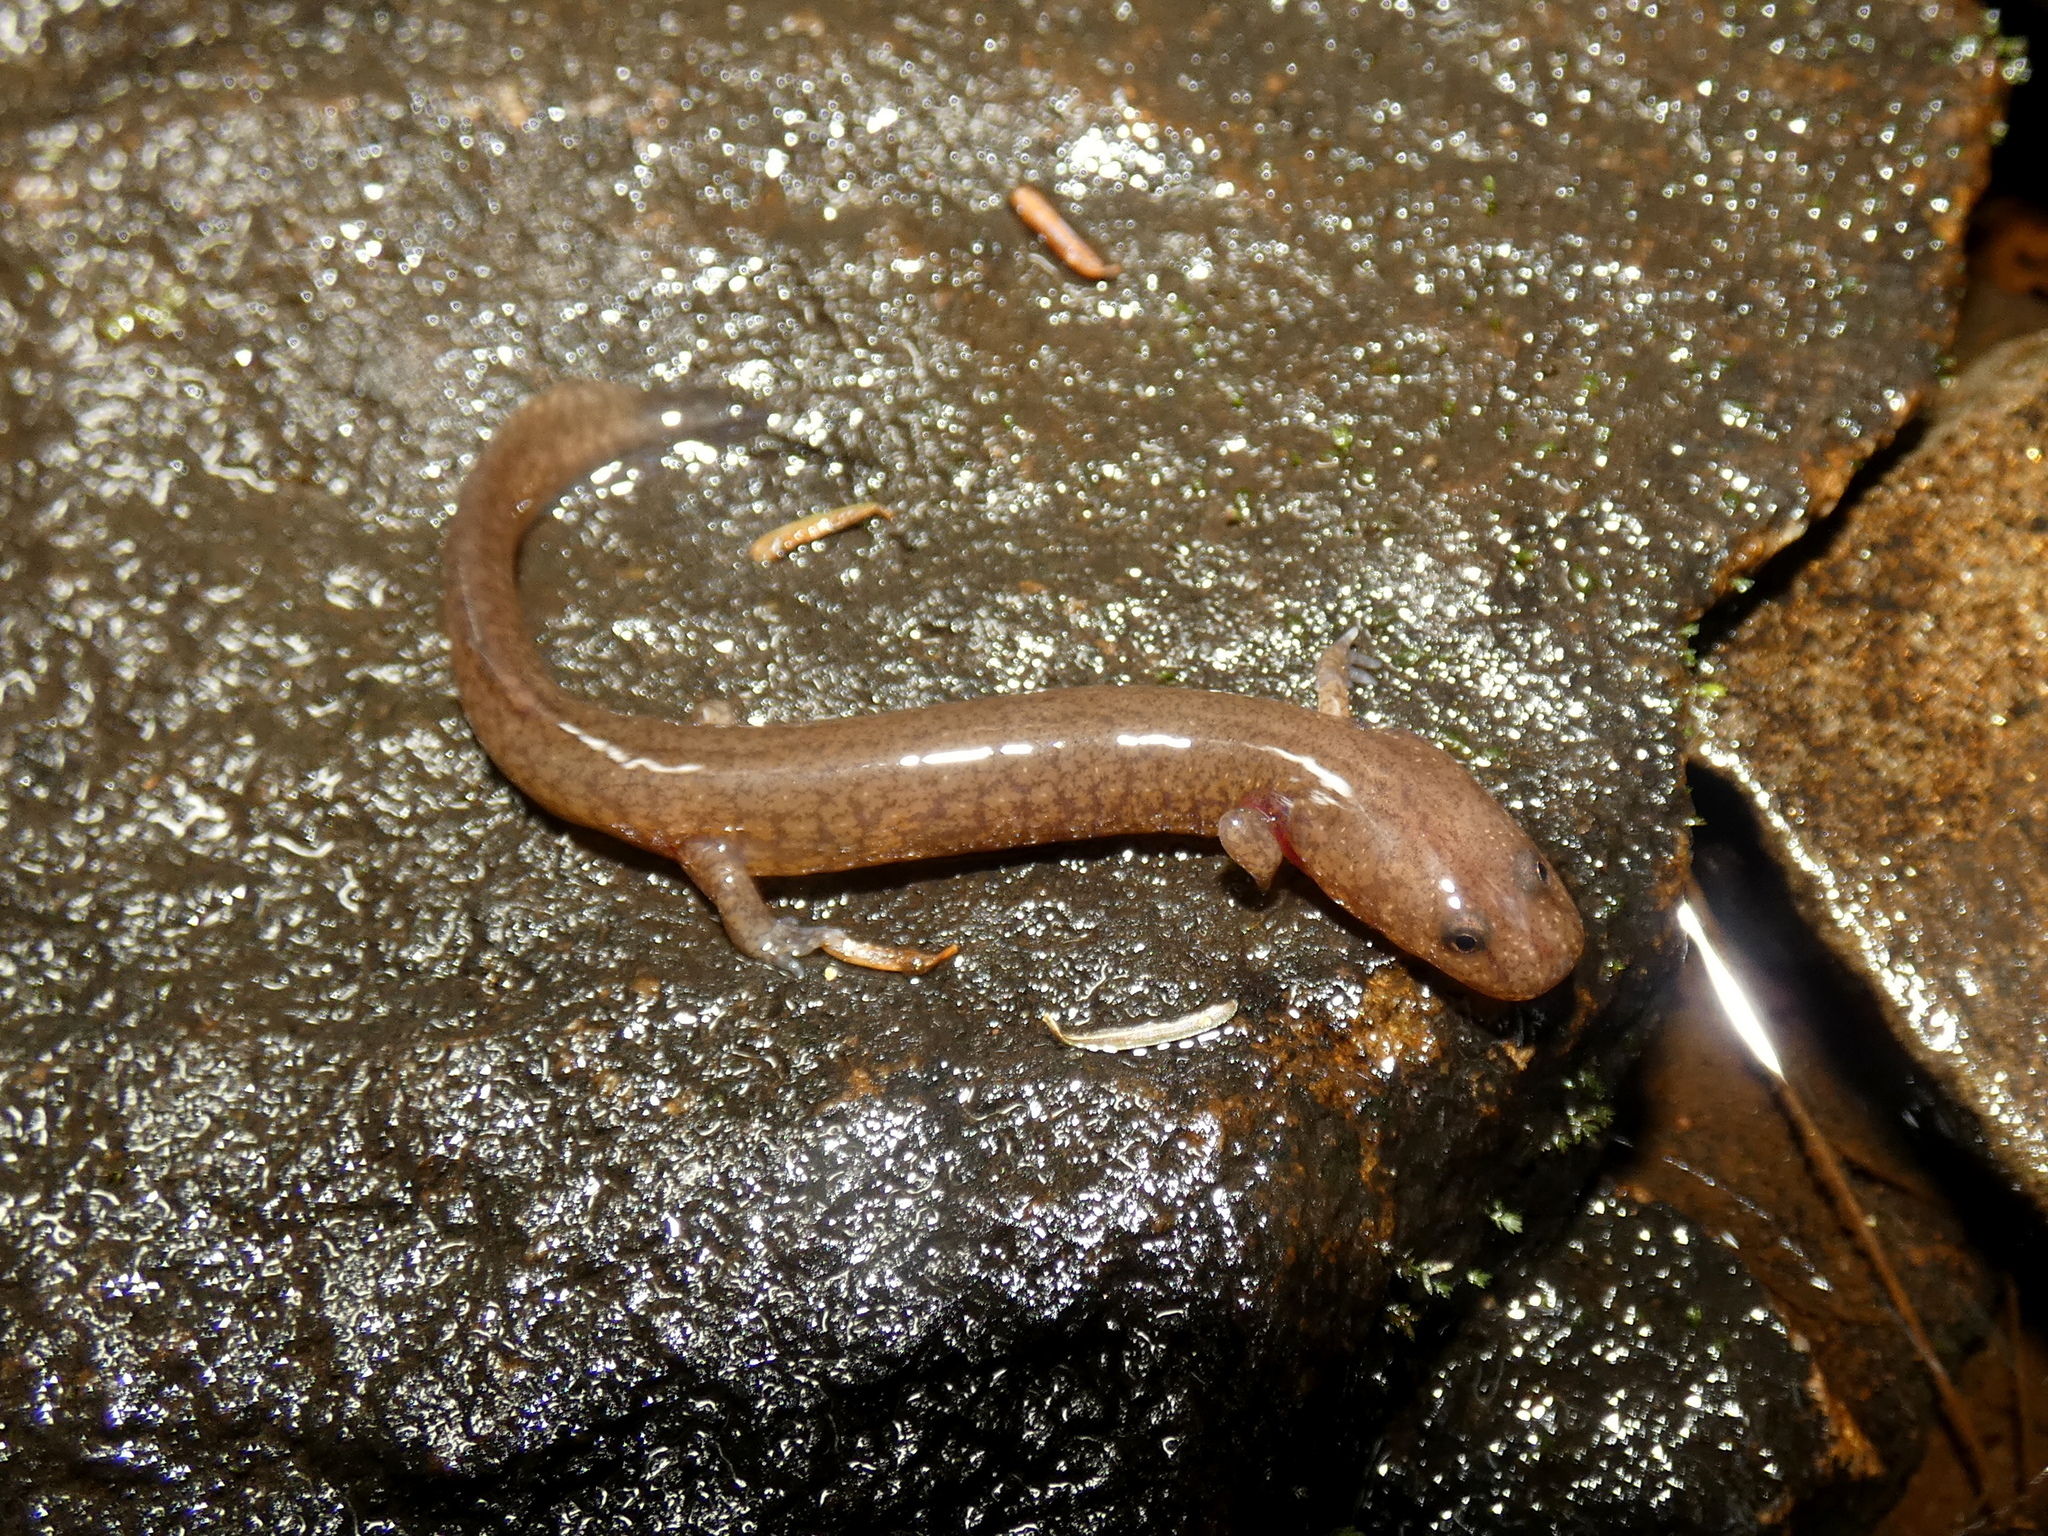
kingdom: Animalia
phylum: Chordata
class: Amphibia
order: Caudata
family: Plethodontidae
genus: Gyrinophilus
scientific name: Gyrinophilus porphyriticus
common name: Spring salamander
